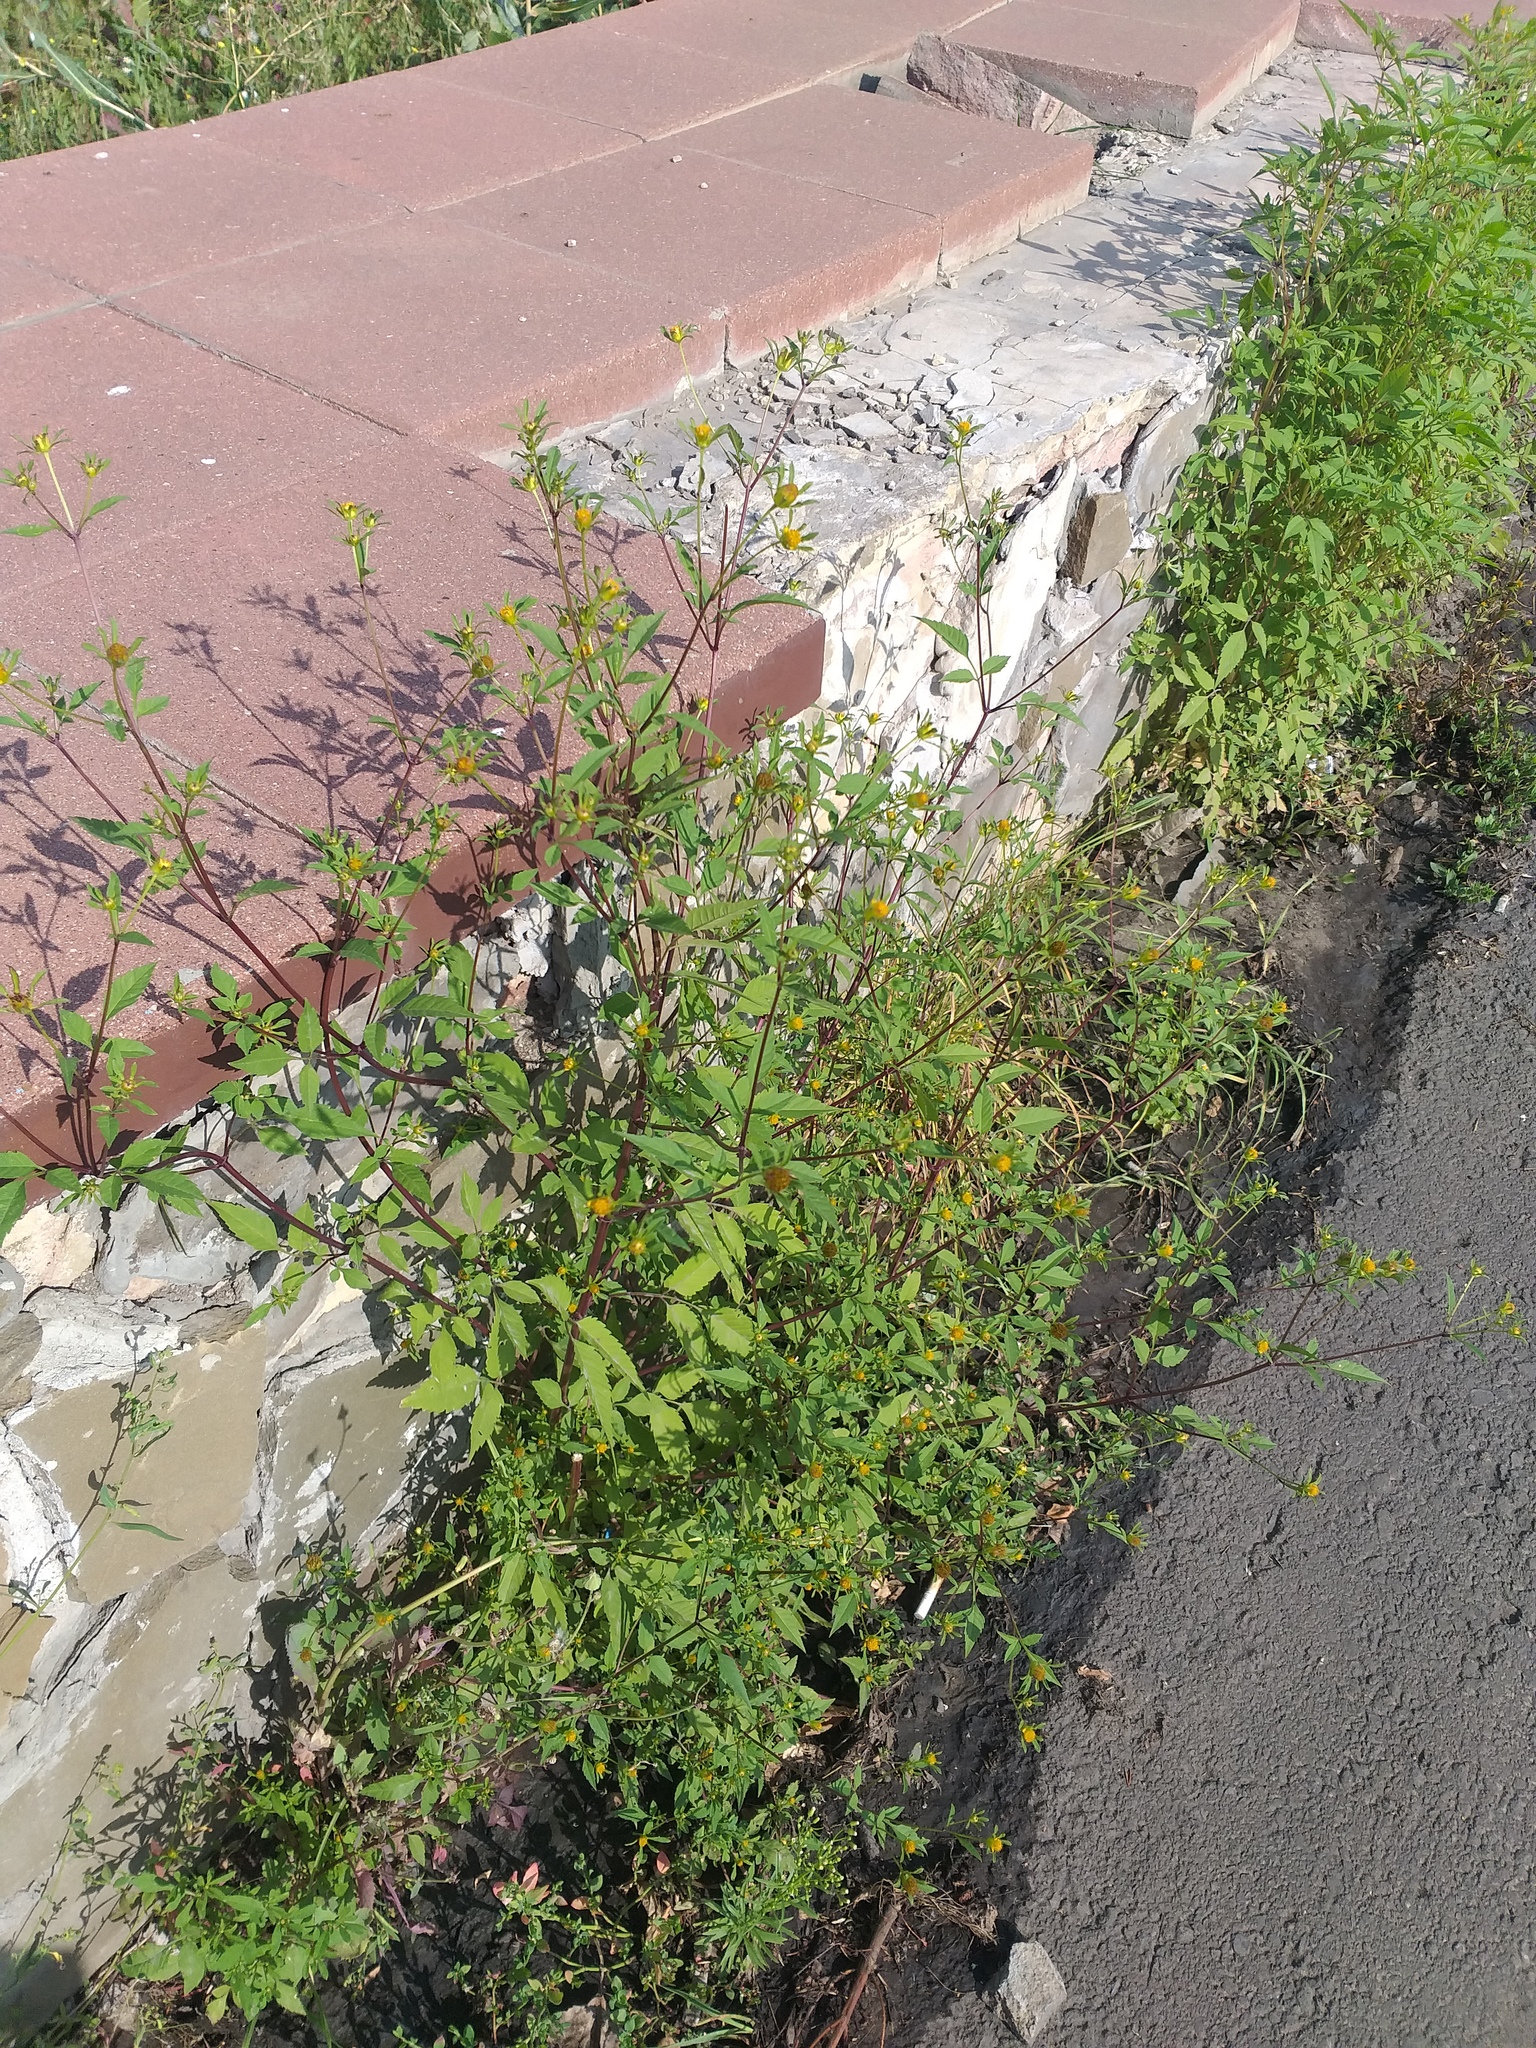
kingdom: Plantae
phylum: Tracheophyta
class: Magnoliopsida
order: Asterales
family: Asteraceae
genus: Bidens
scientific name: Bidens frondosa
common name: Beggarticks
